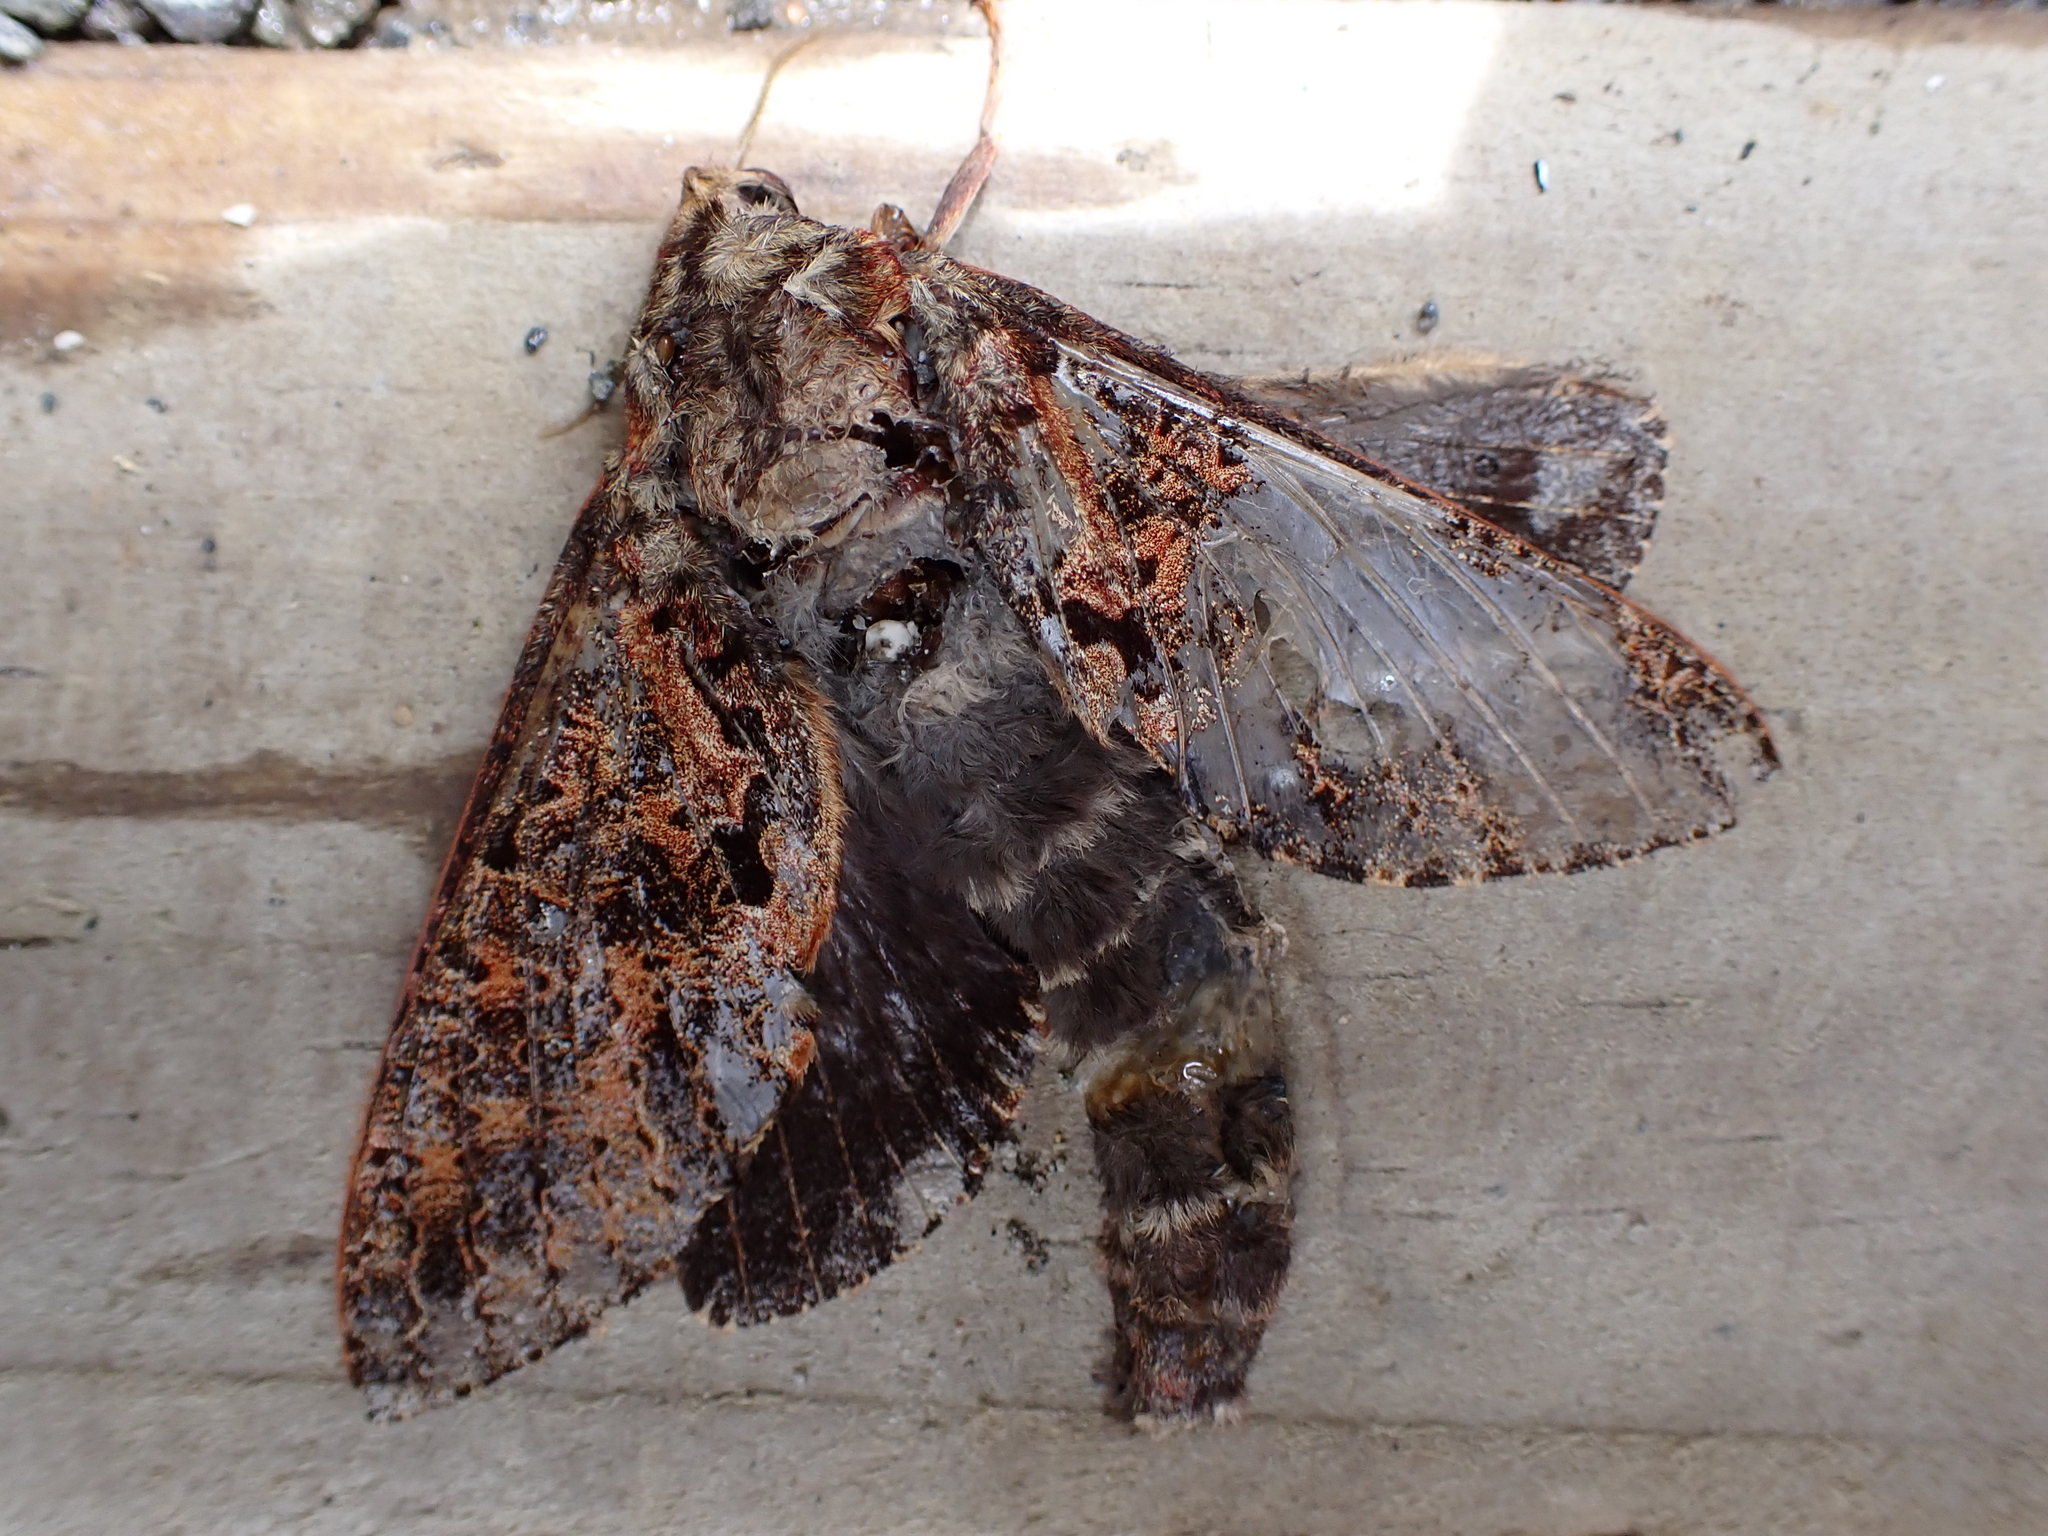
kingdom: Animalia
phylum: Arthropoda
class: Insecta
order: Lepidoptera
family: Hepialidae
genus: Dumbletonius
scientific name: Dumbletonius characterifer
